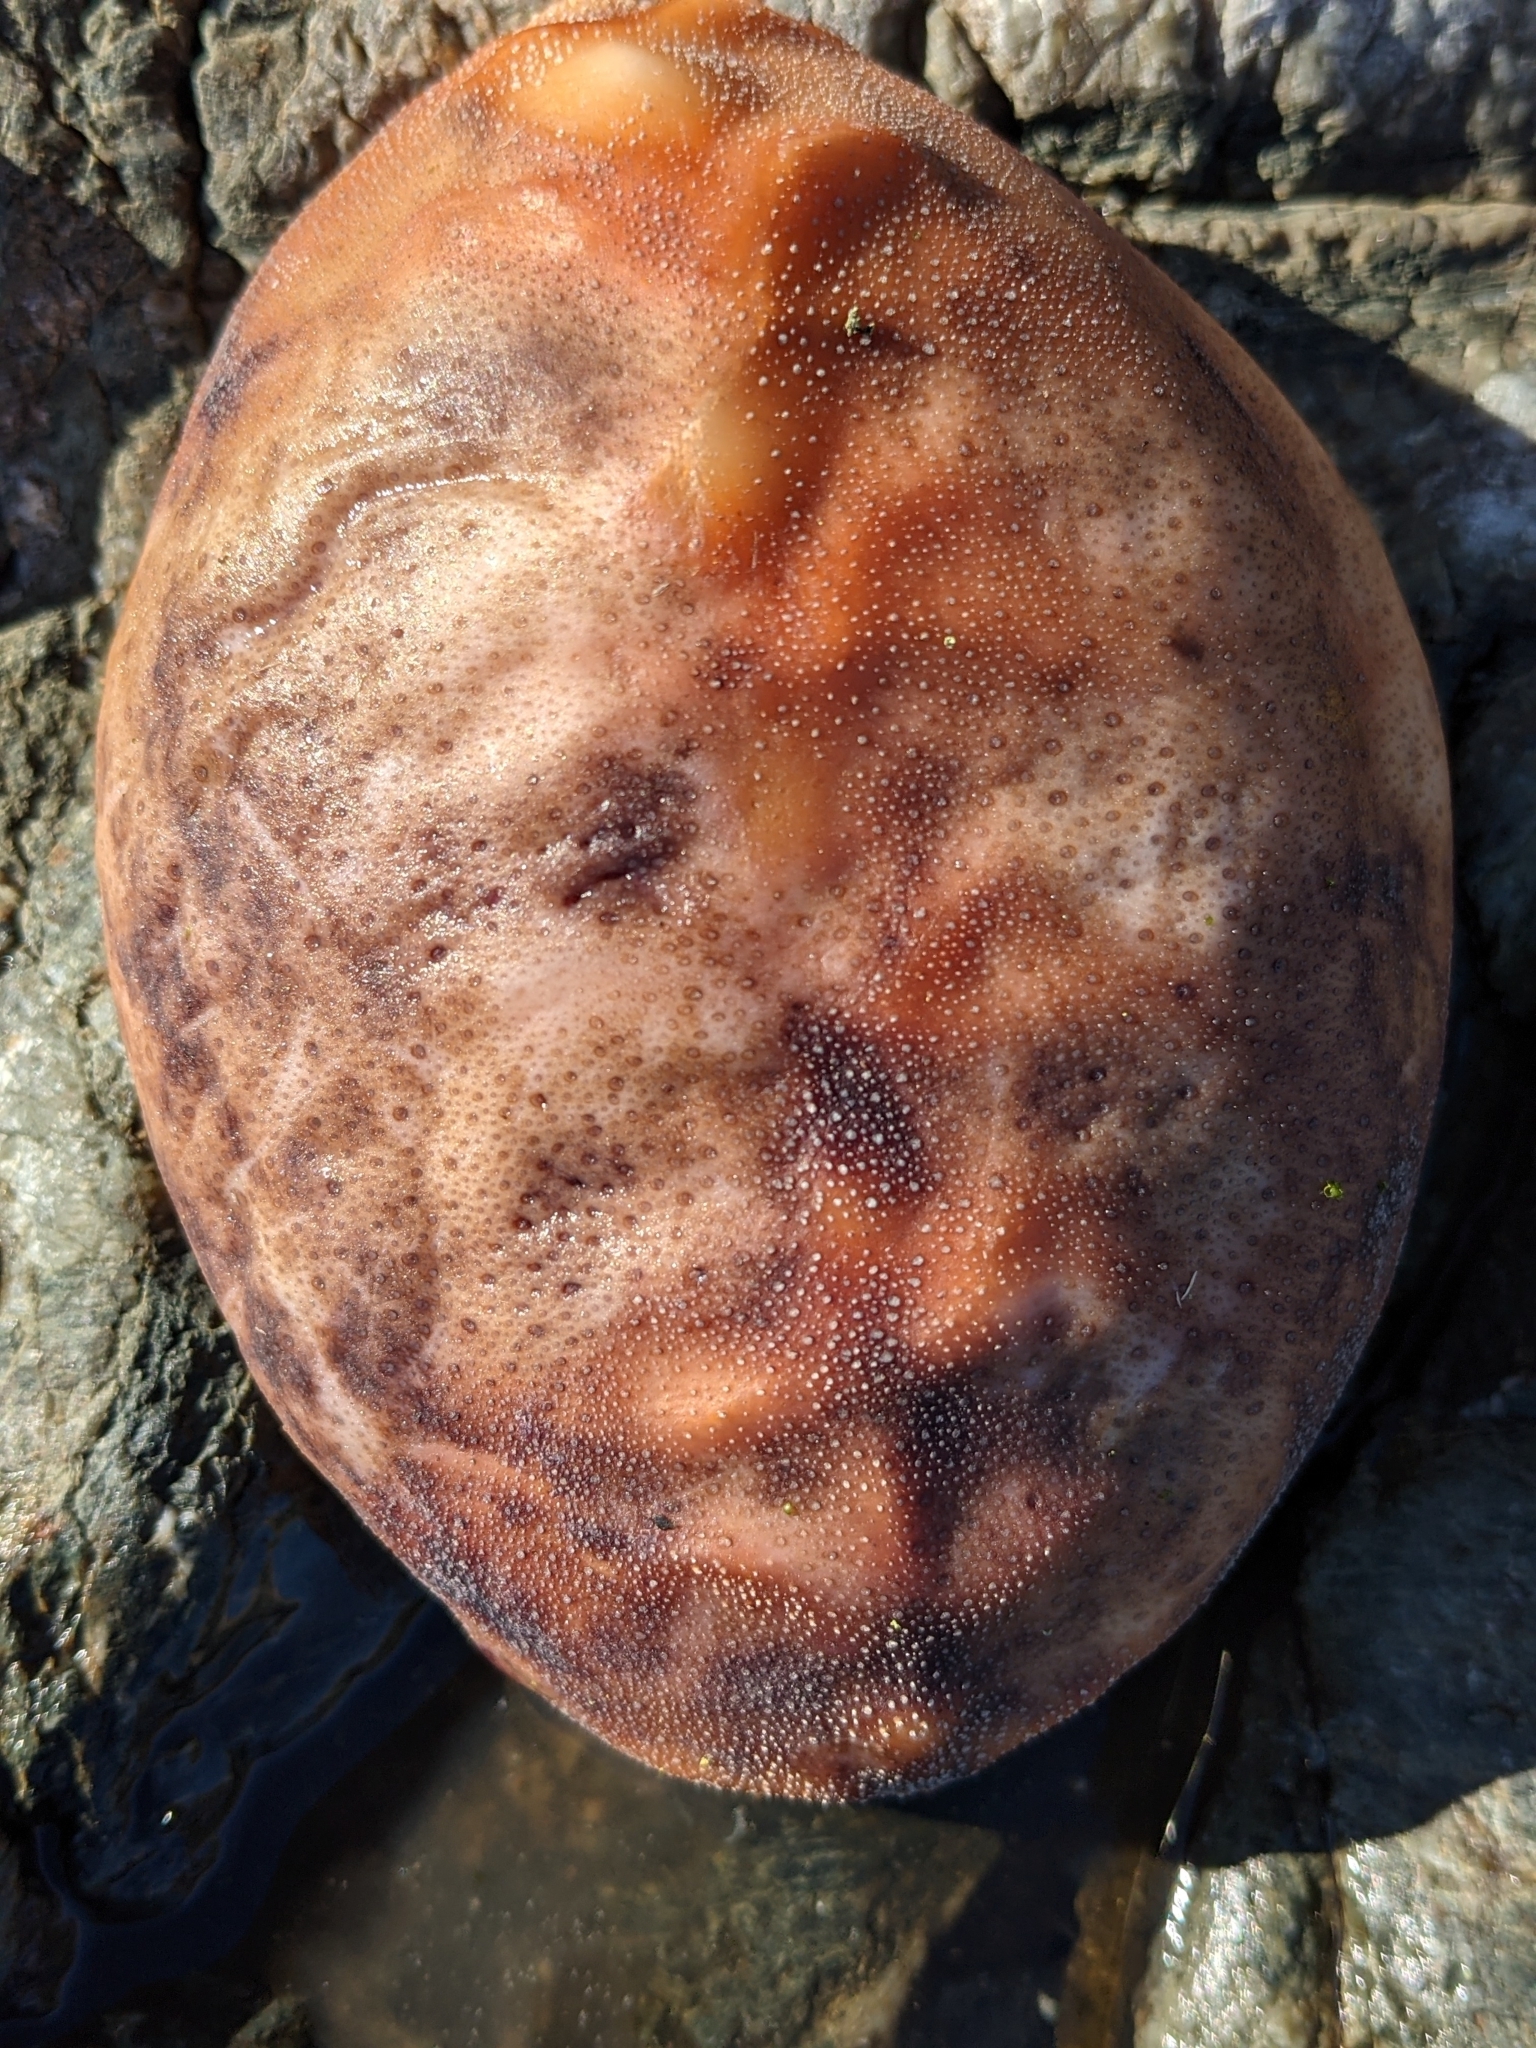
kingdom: Animalia
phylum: Mollusca
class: Polyplacophora
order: Chitonida
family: Acanthochitonidae
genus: Cryptochiton
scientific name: Cryptochiton stelleri
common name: Giant pacific chiton
